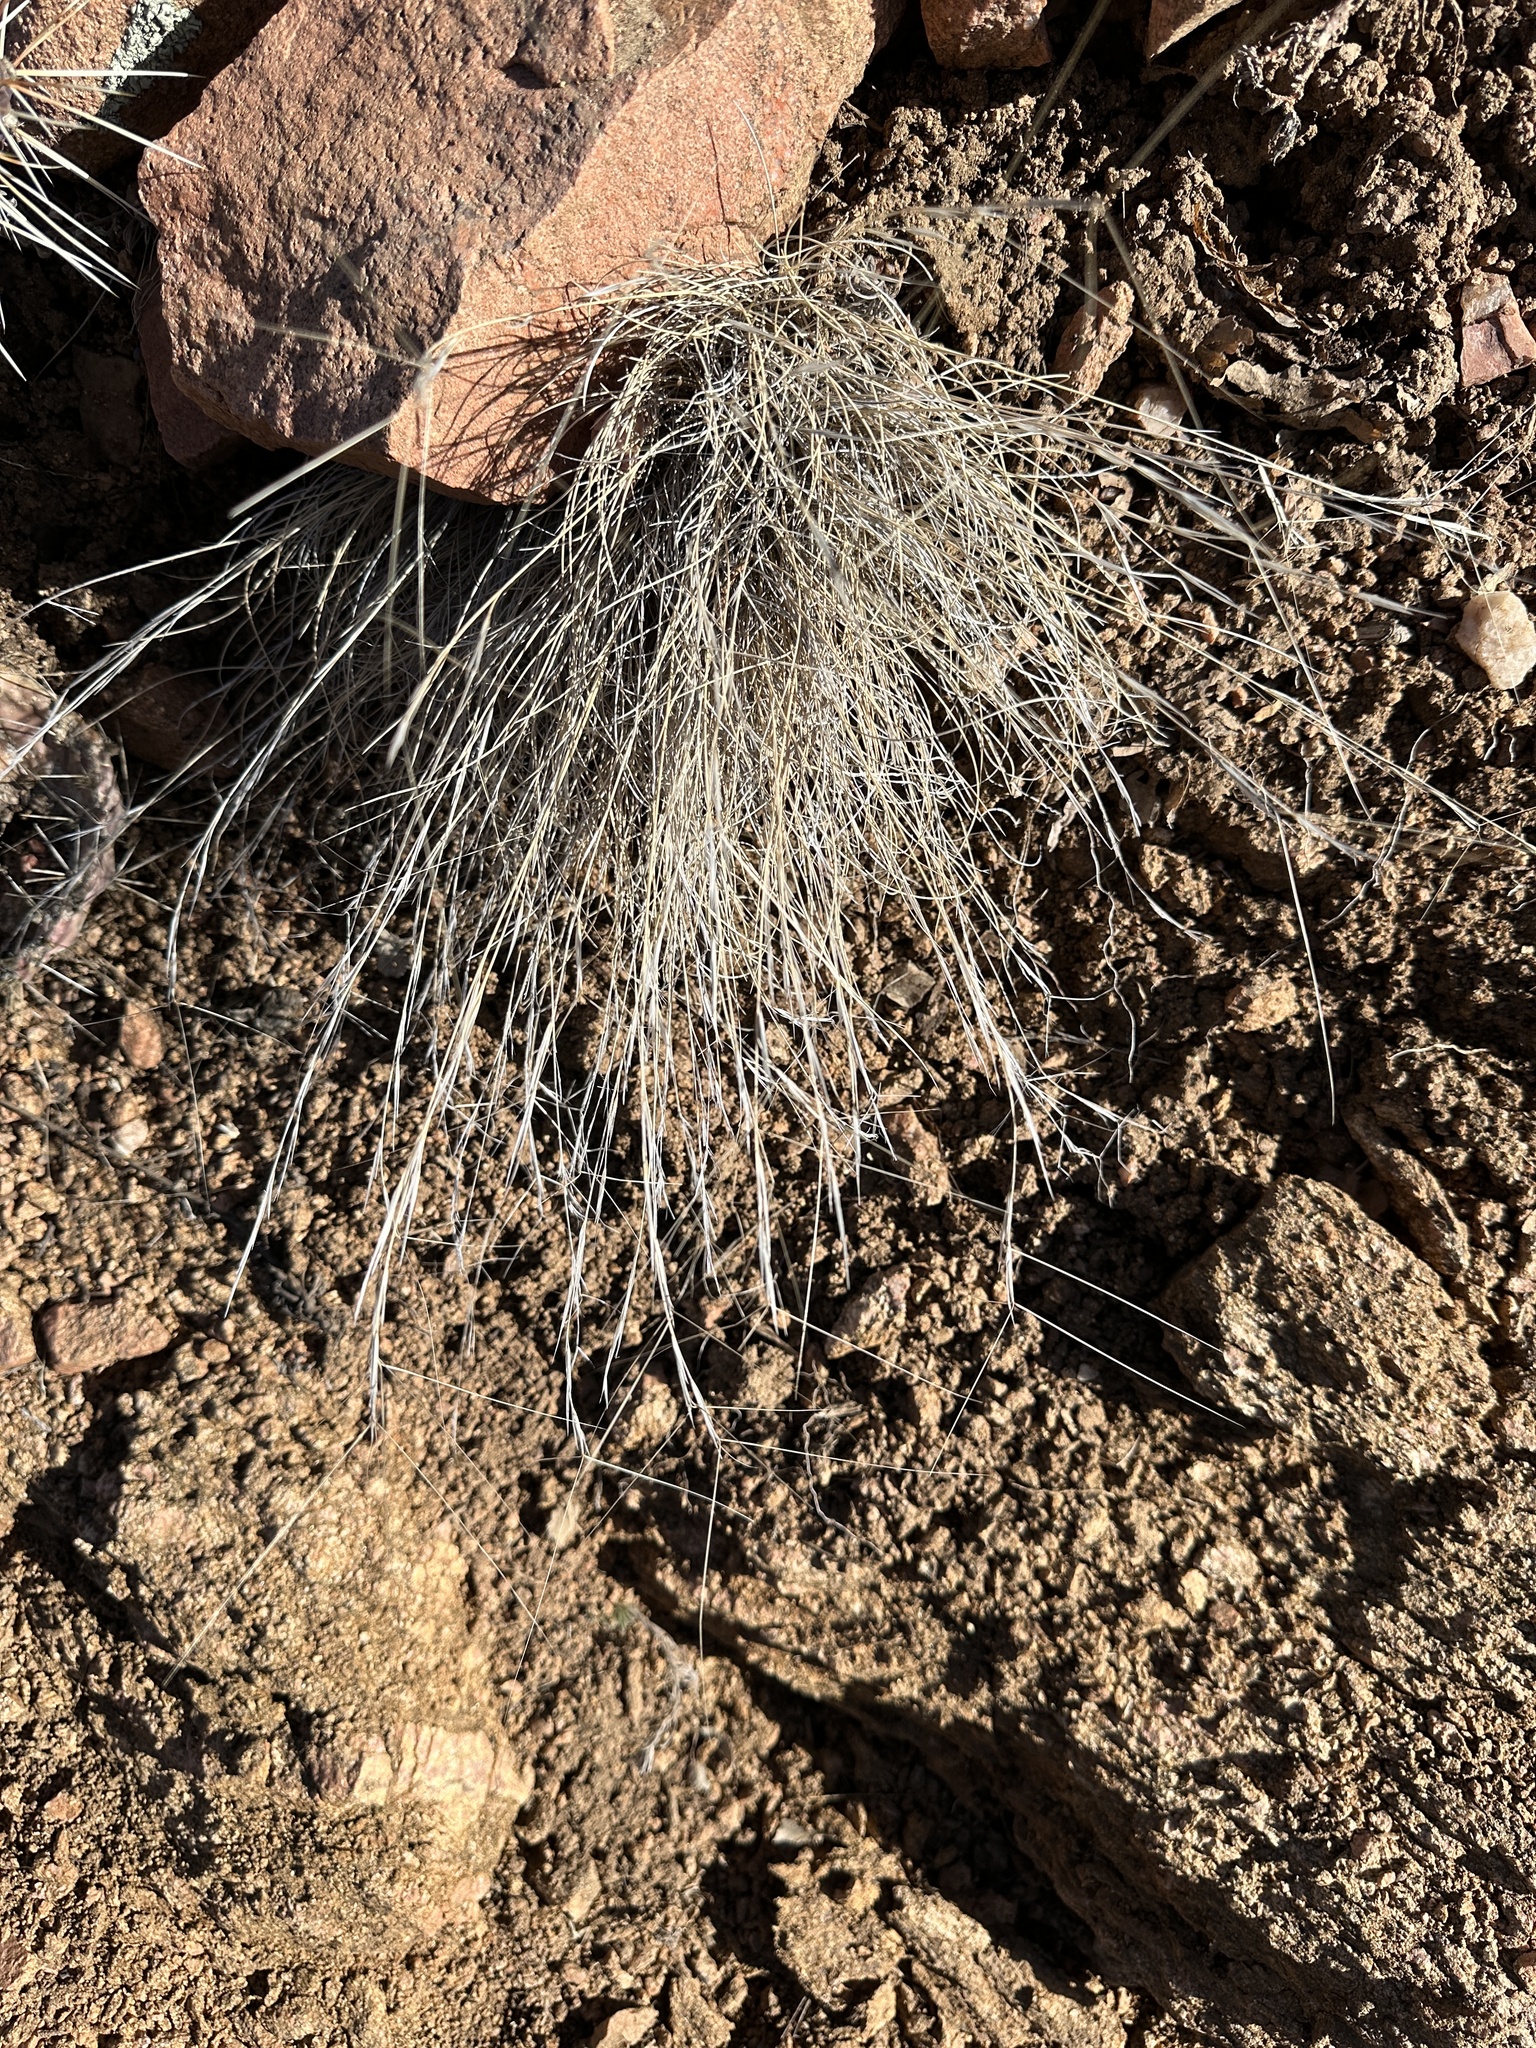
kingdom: Plantae
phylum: Tracheophyta
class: Liliopsida
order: Poales
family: Poaceae
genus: Aristida
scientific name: Aristida purpurea
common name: Purple threeawn
